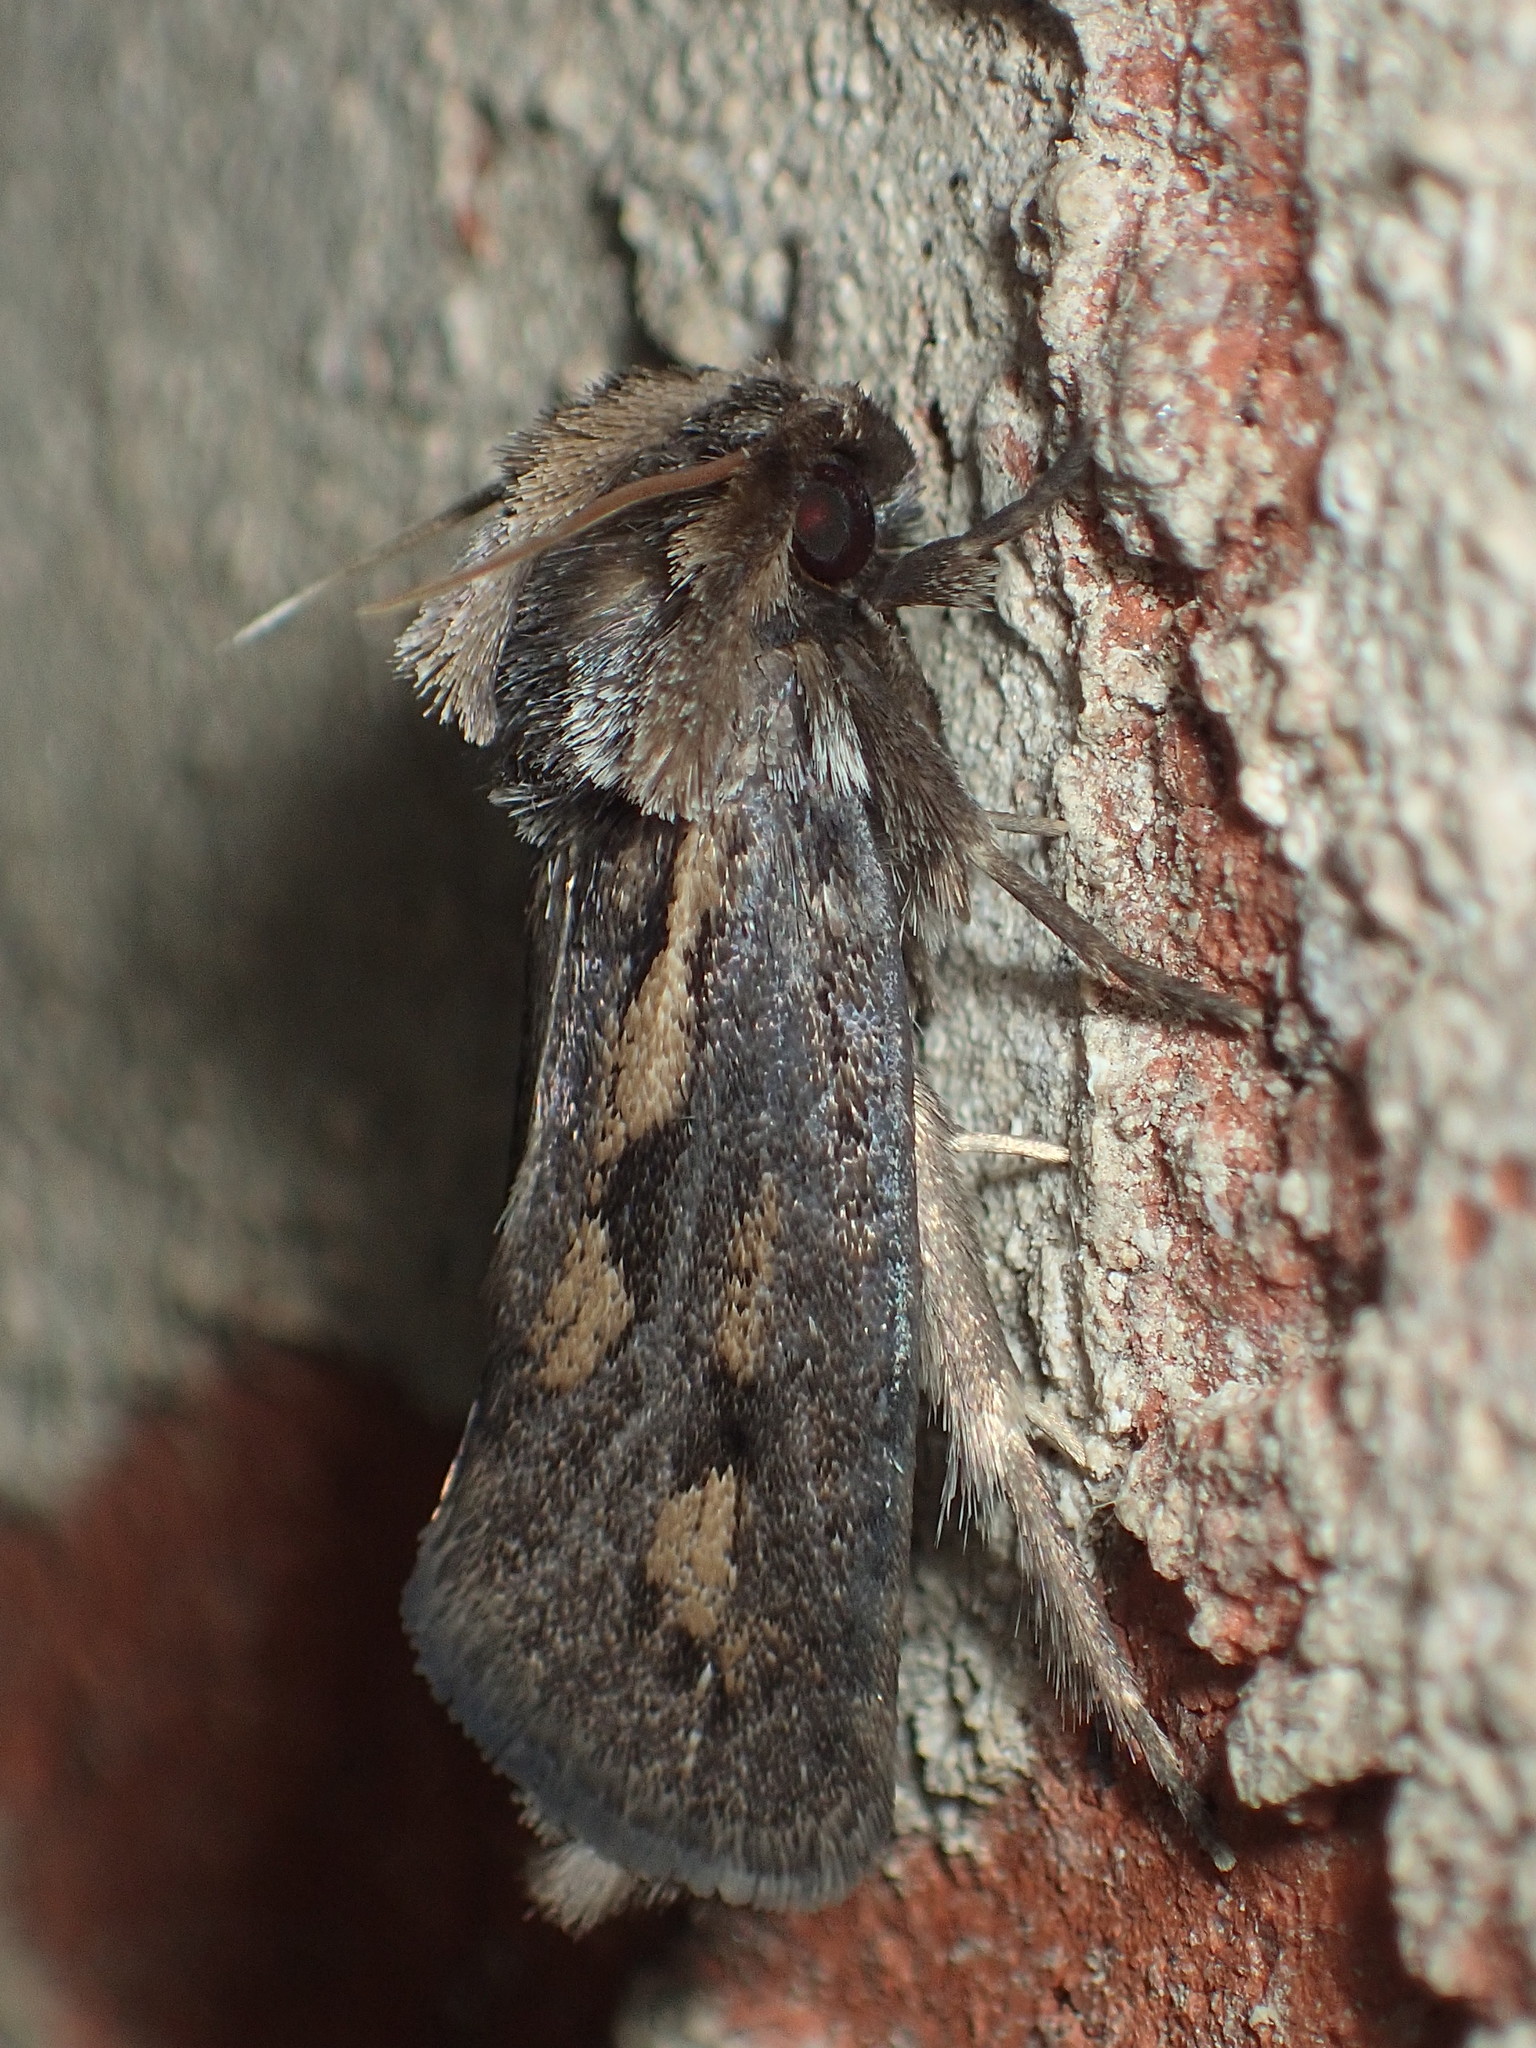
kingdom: Animalia
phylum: Arthropoda
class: Insecta
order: Lepidoptera
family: Tineidae
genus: Acrolophus
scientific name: Acrolophus popeanella
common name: Clemens' grass tubeworm moth
